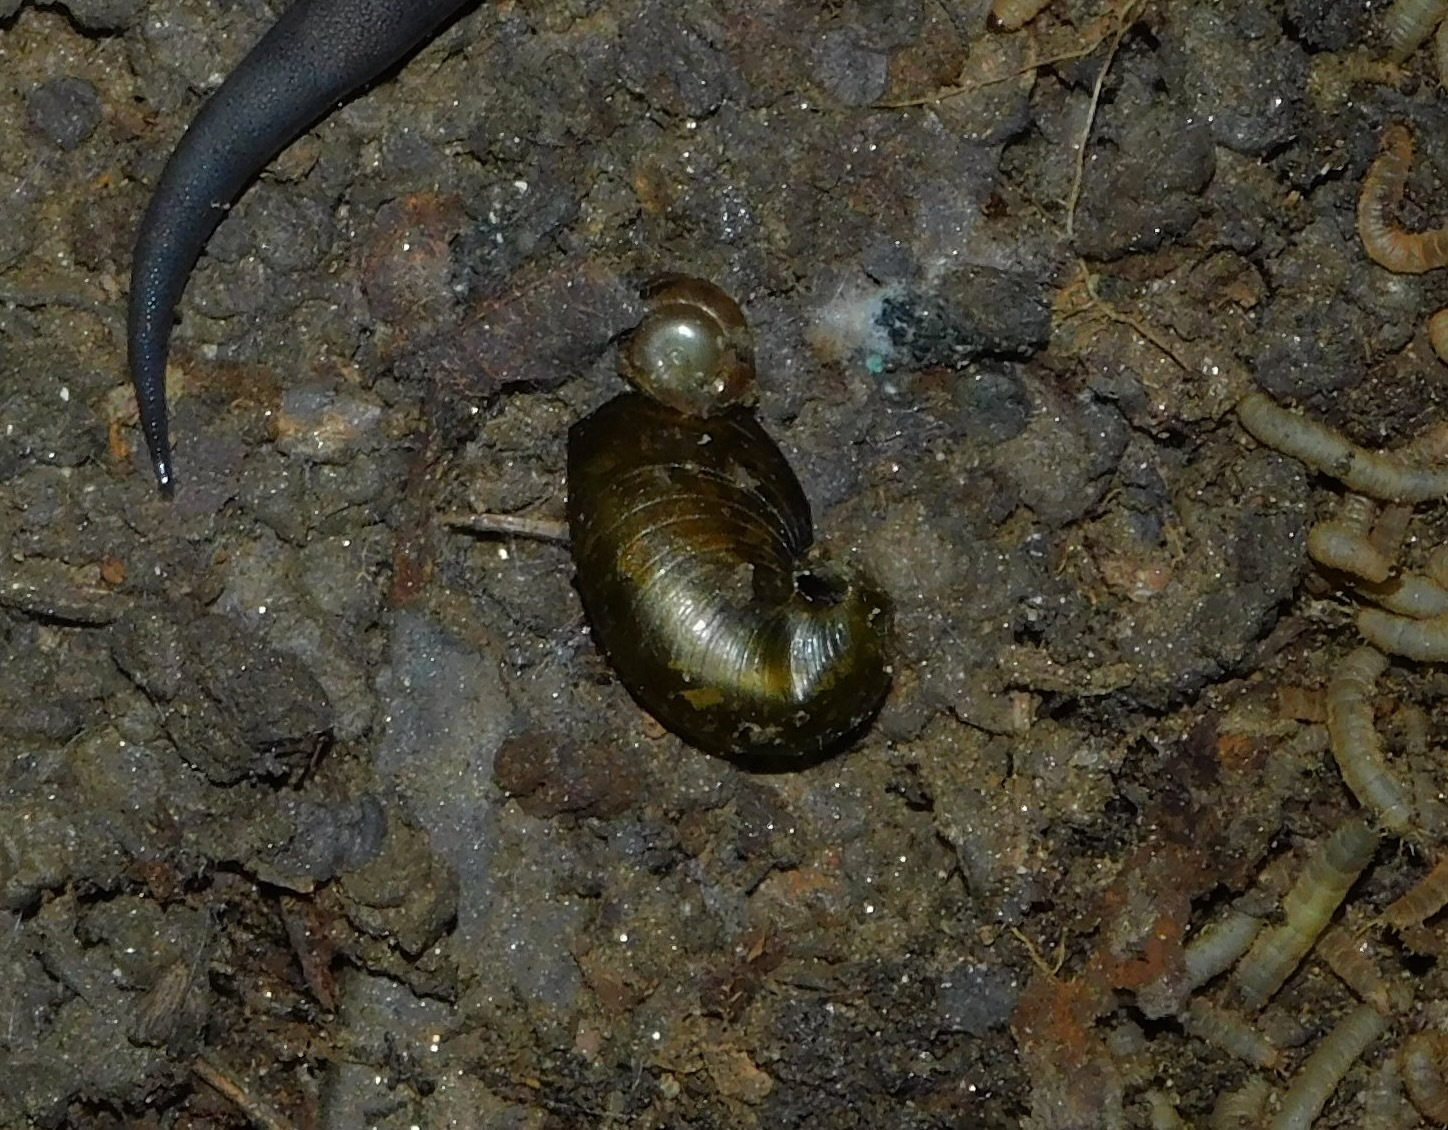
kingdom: Animalia
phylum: Mollusca
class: Gastropoda
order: Stylommatophora
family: Gastrodontidae
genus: Vitrinizonites
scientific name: Vitrinizonites latissimus
